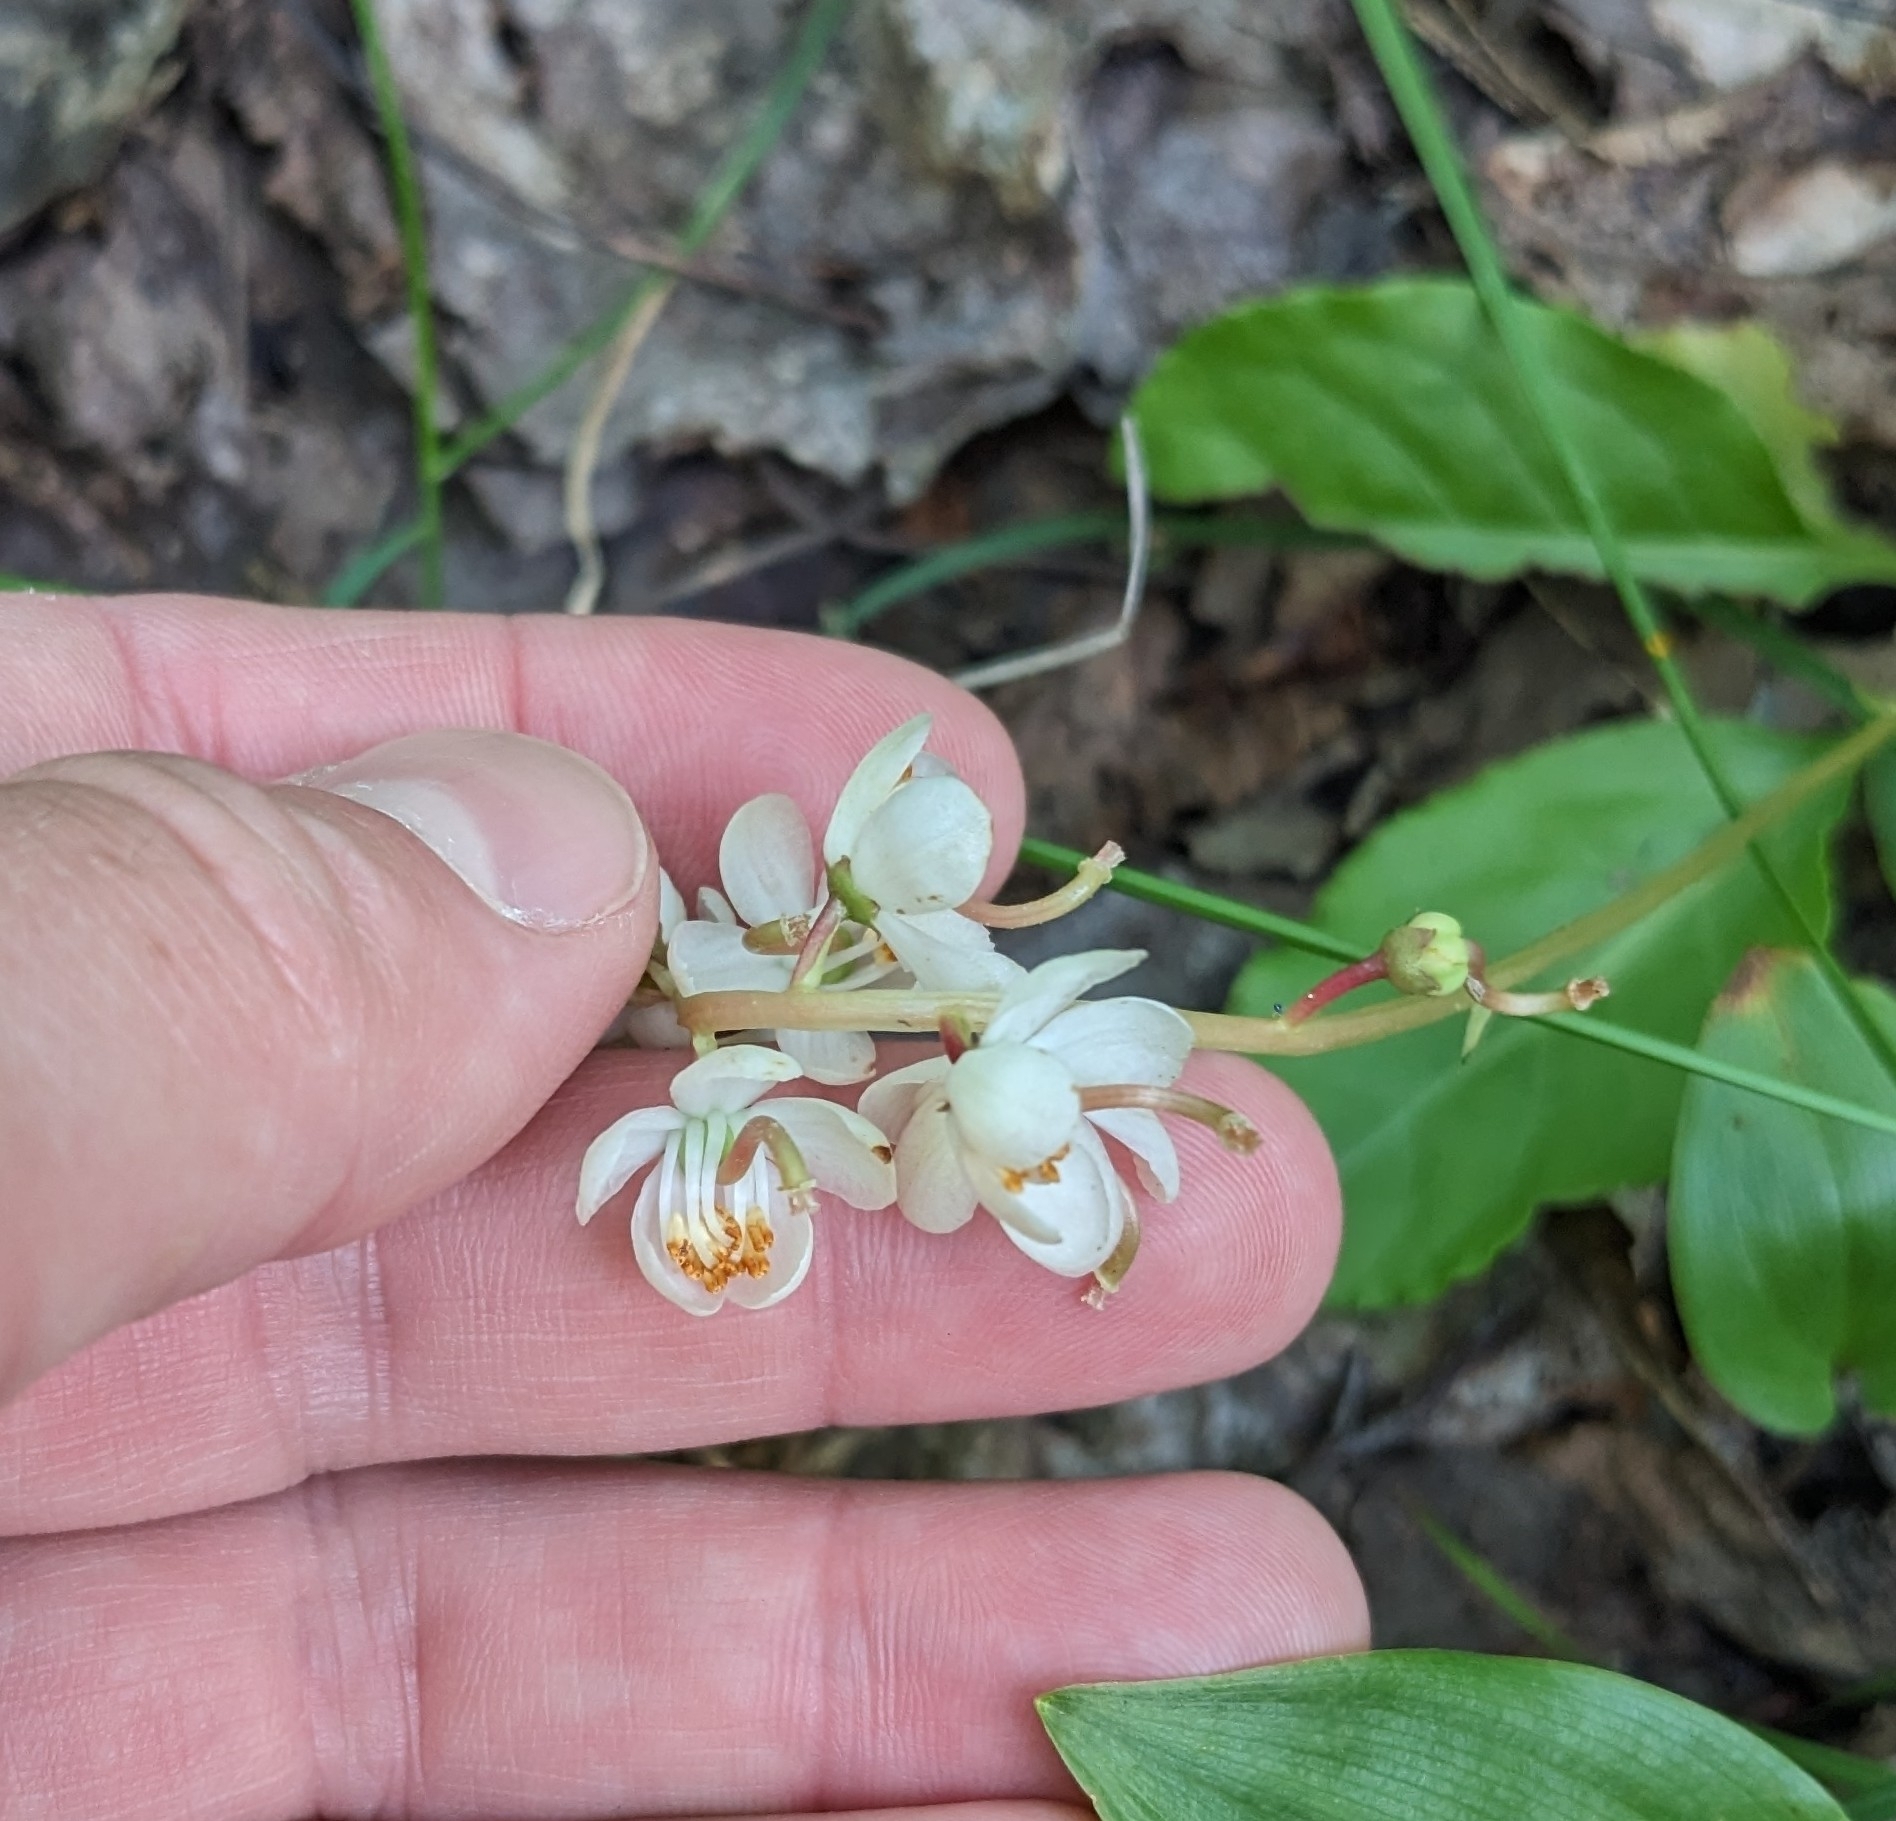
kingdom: Plantae
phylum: Tracheophyta
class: Magnoliopsida
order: Ericales
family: Ericaceae
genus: Pyrola
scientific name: Pyrola elliptica
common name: Shinleaf
